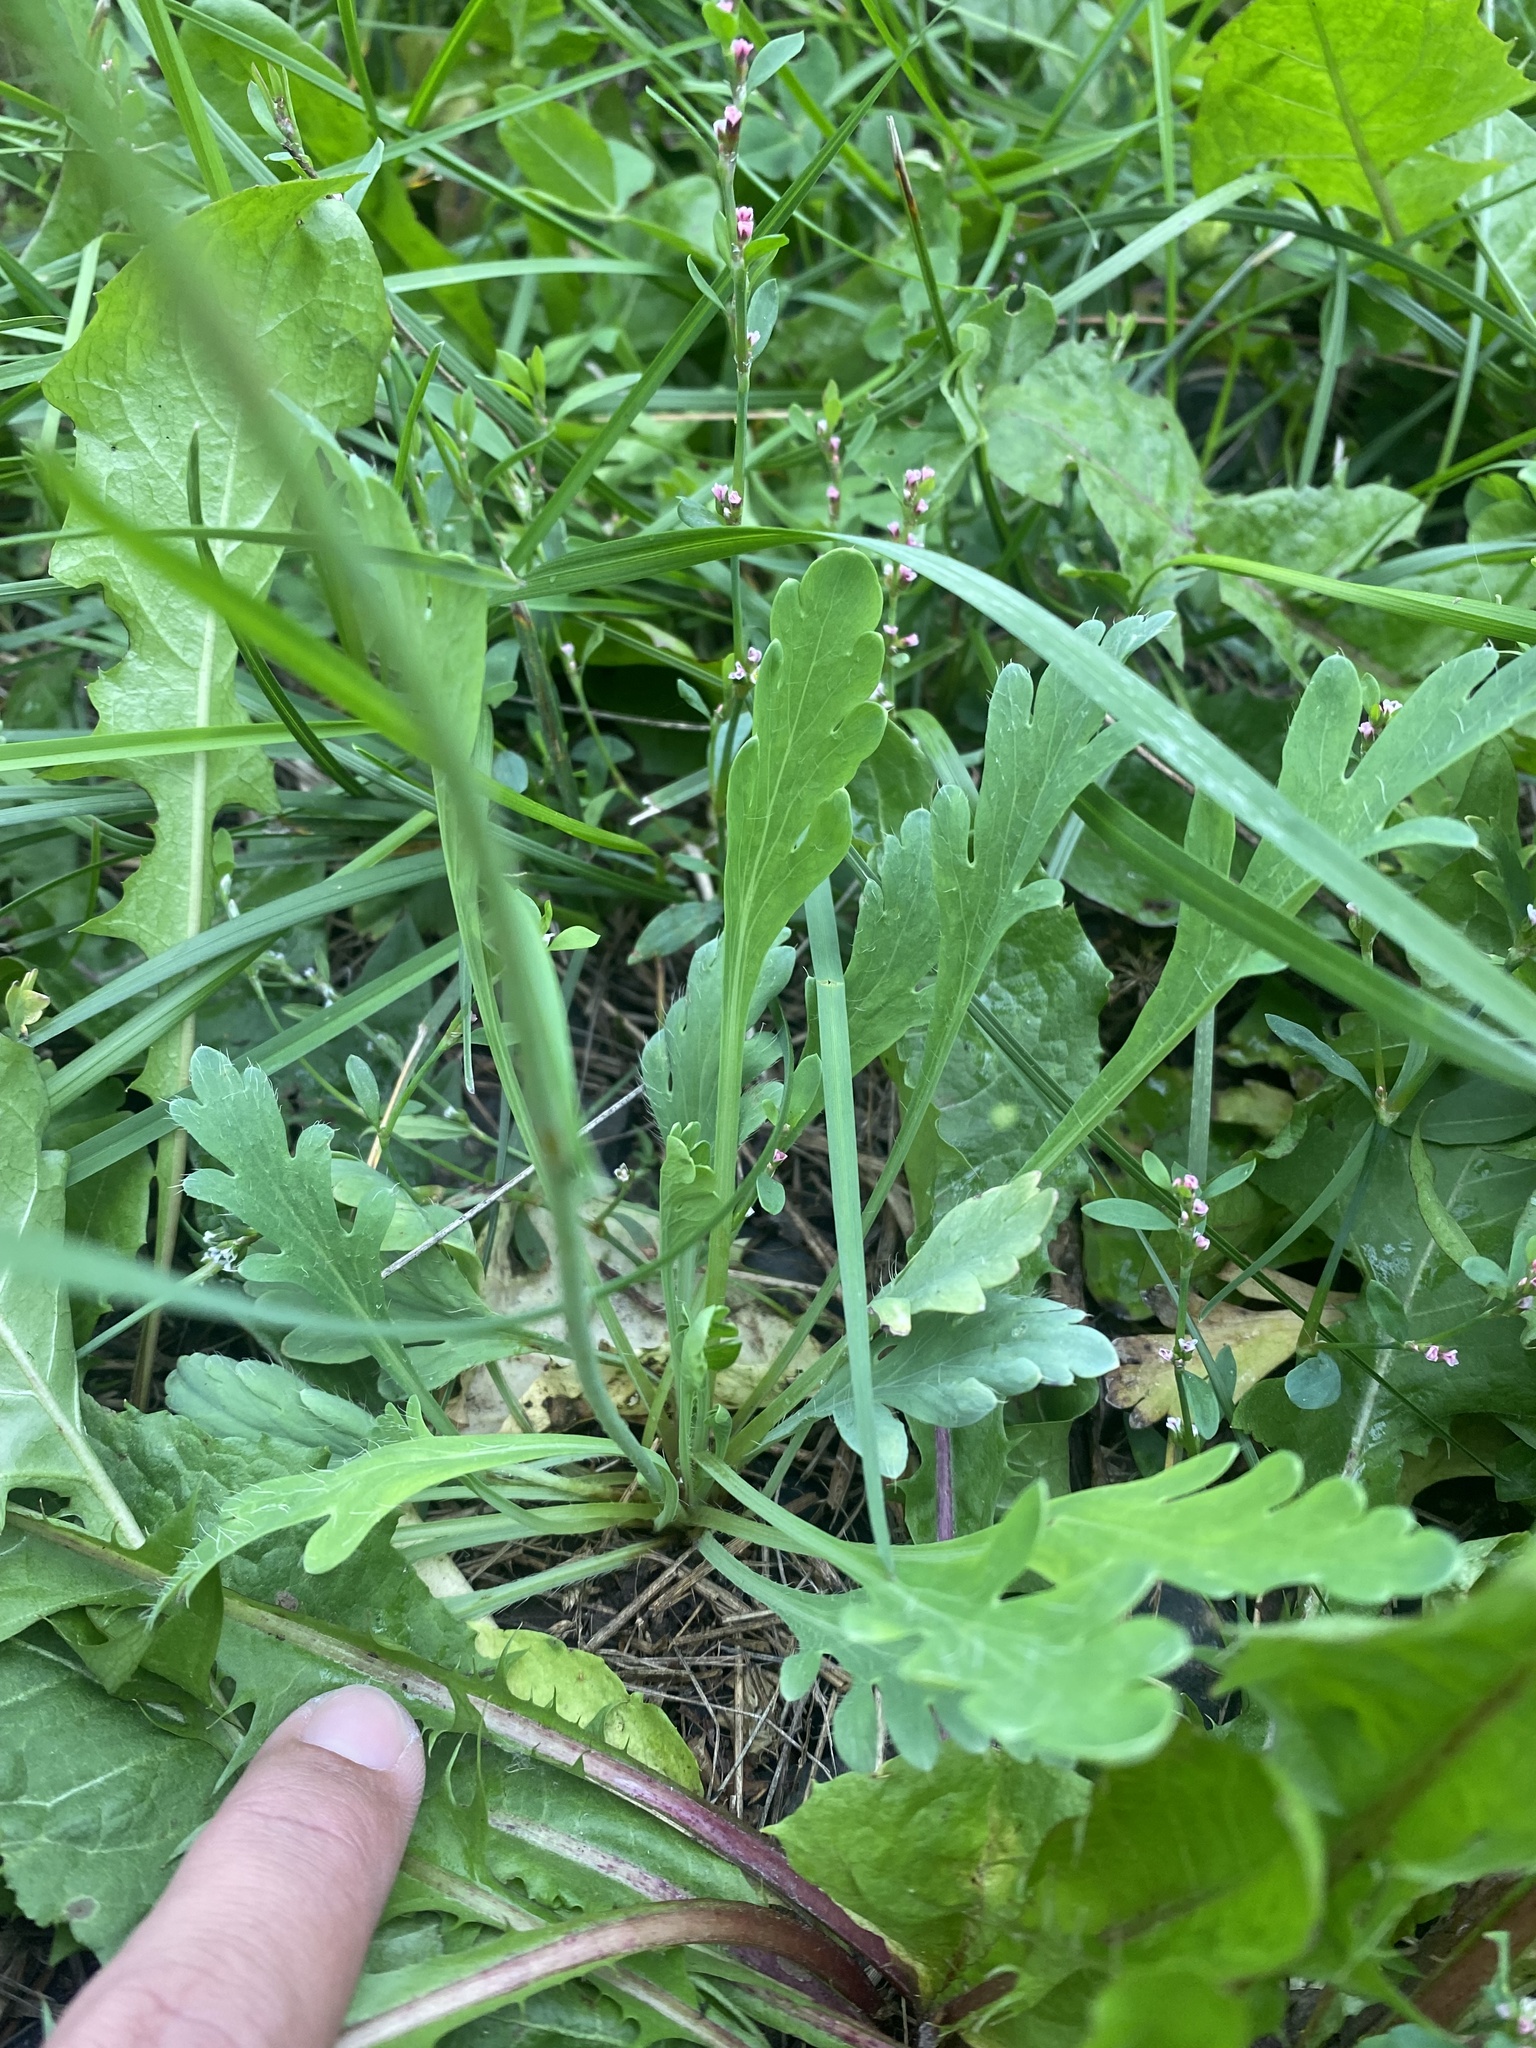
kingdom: Plantae
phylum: Tracheophyta
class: Magnoliopsida
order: Ranunculales
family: Papaveraceae
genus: Oreomecon
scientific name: Oreomecon
